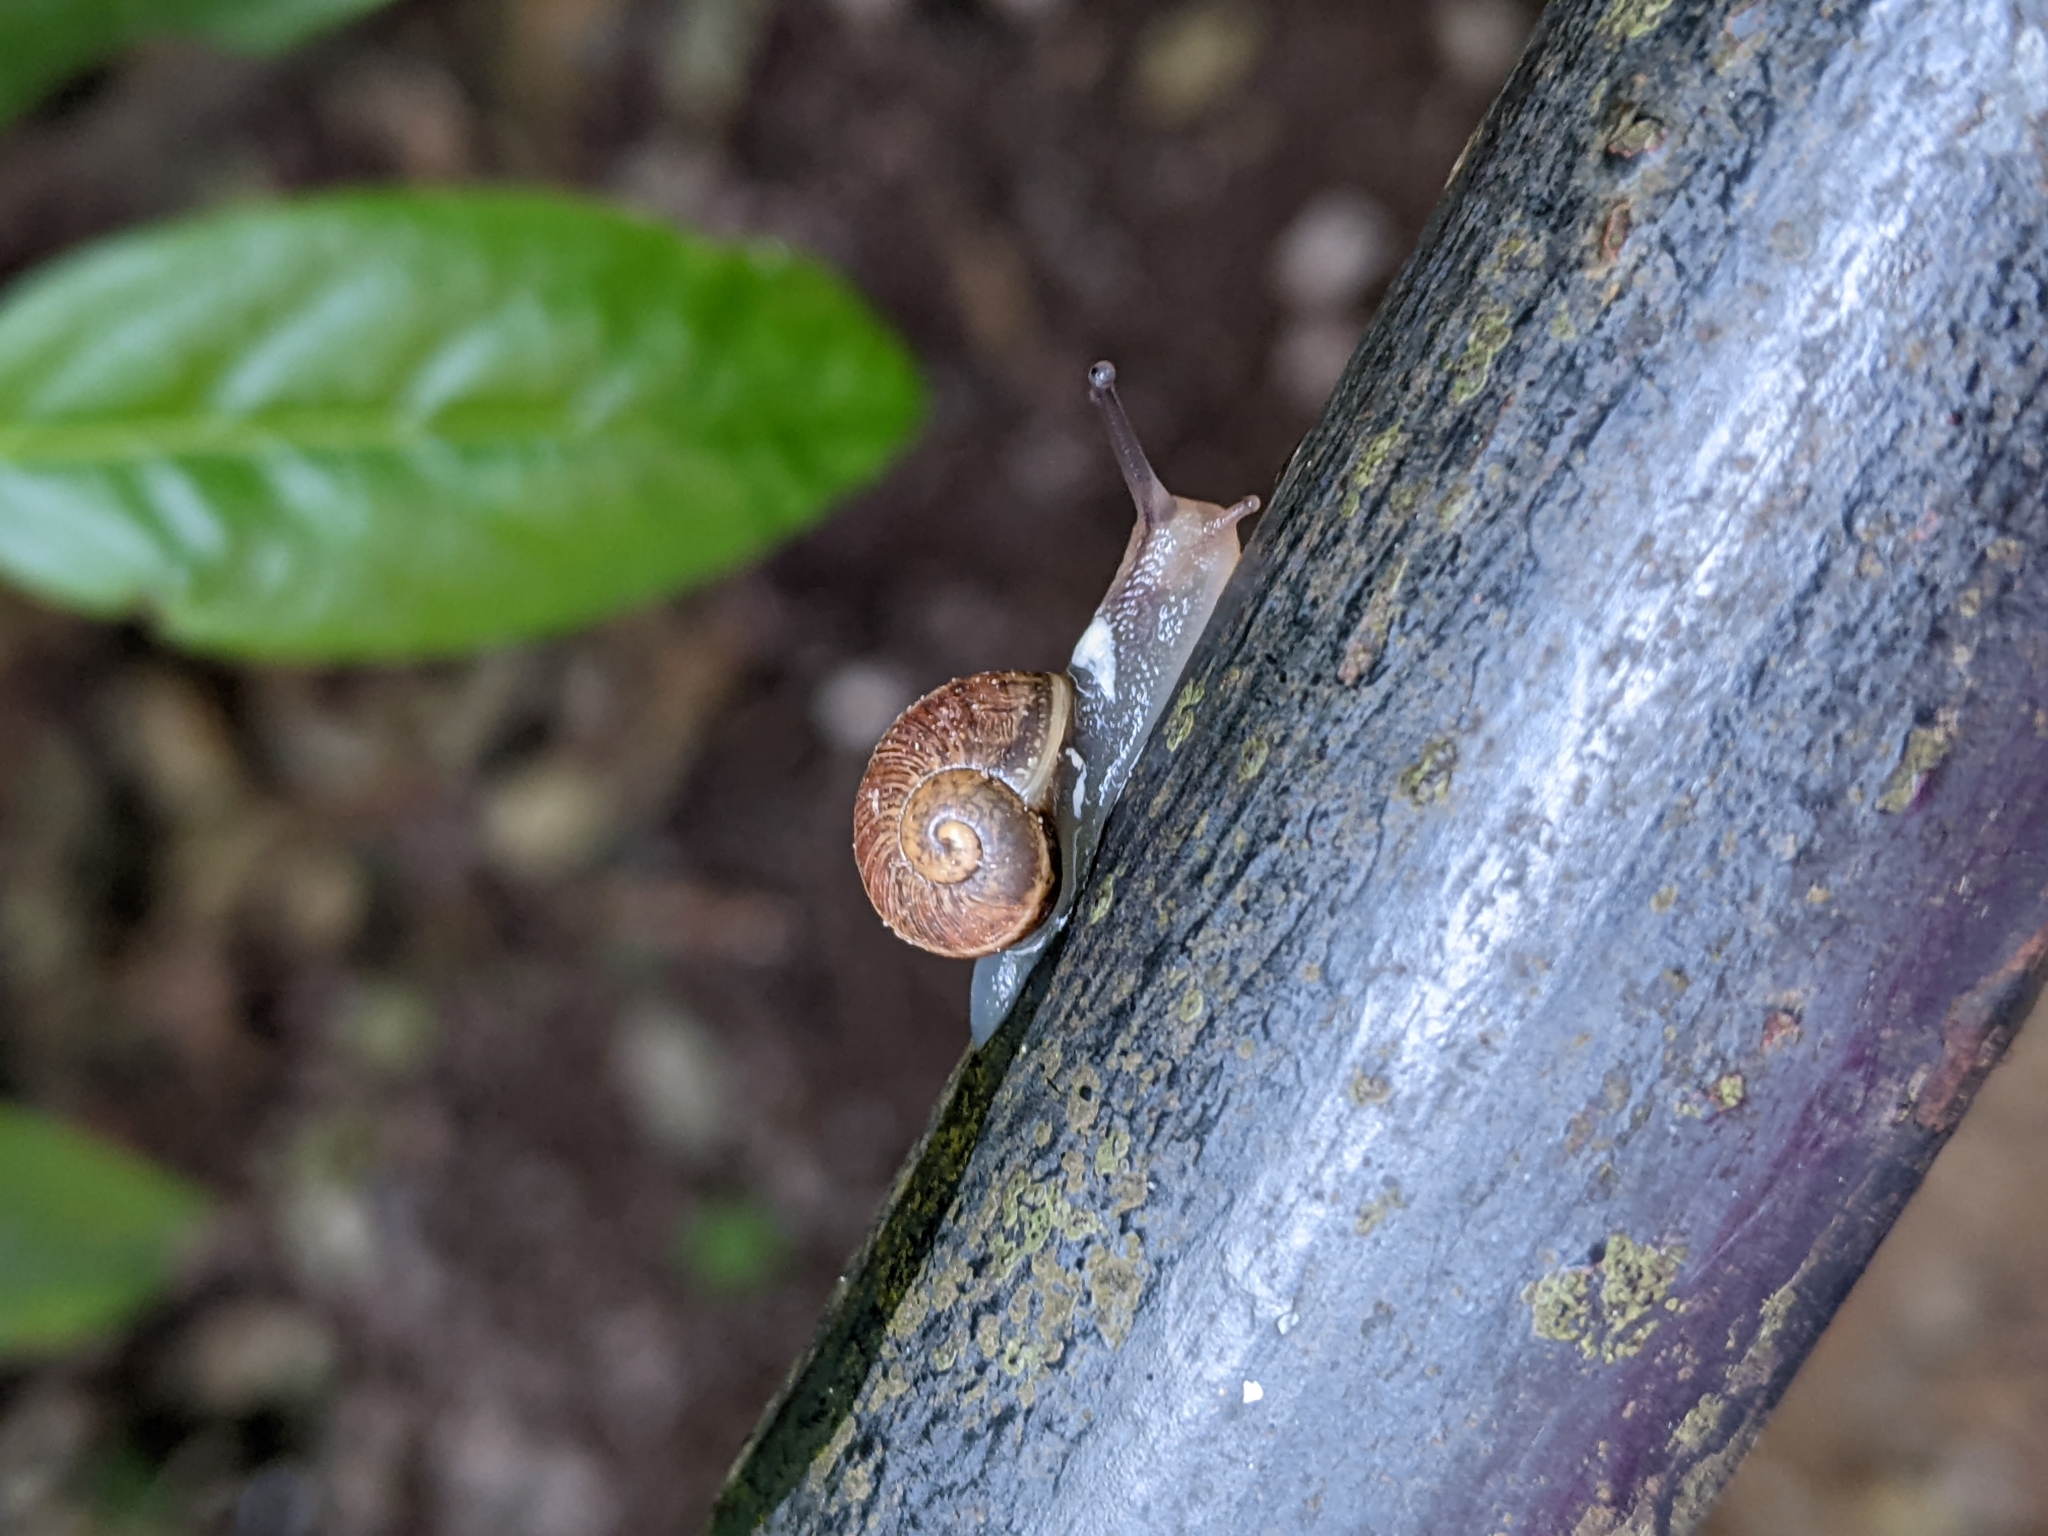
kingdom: Animalia
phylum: Mollusca
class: Gastropoda
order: Stylommatophora
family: Helicidae
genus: Cornu
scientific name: Cornu aspersum
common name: Brown garden snail
